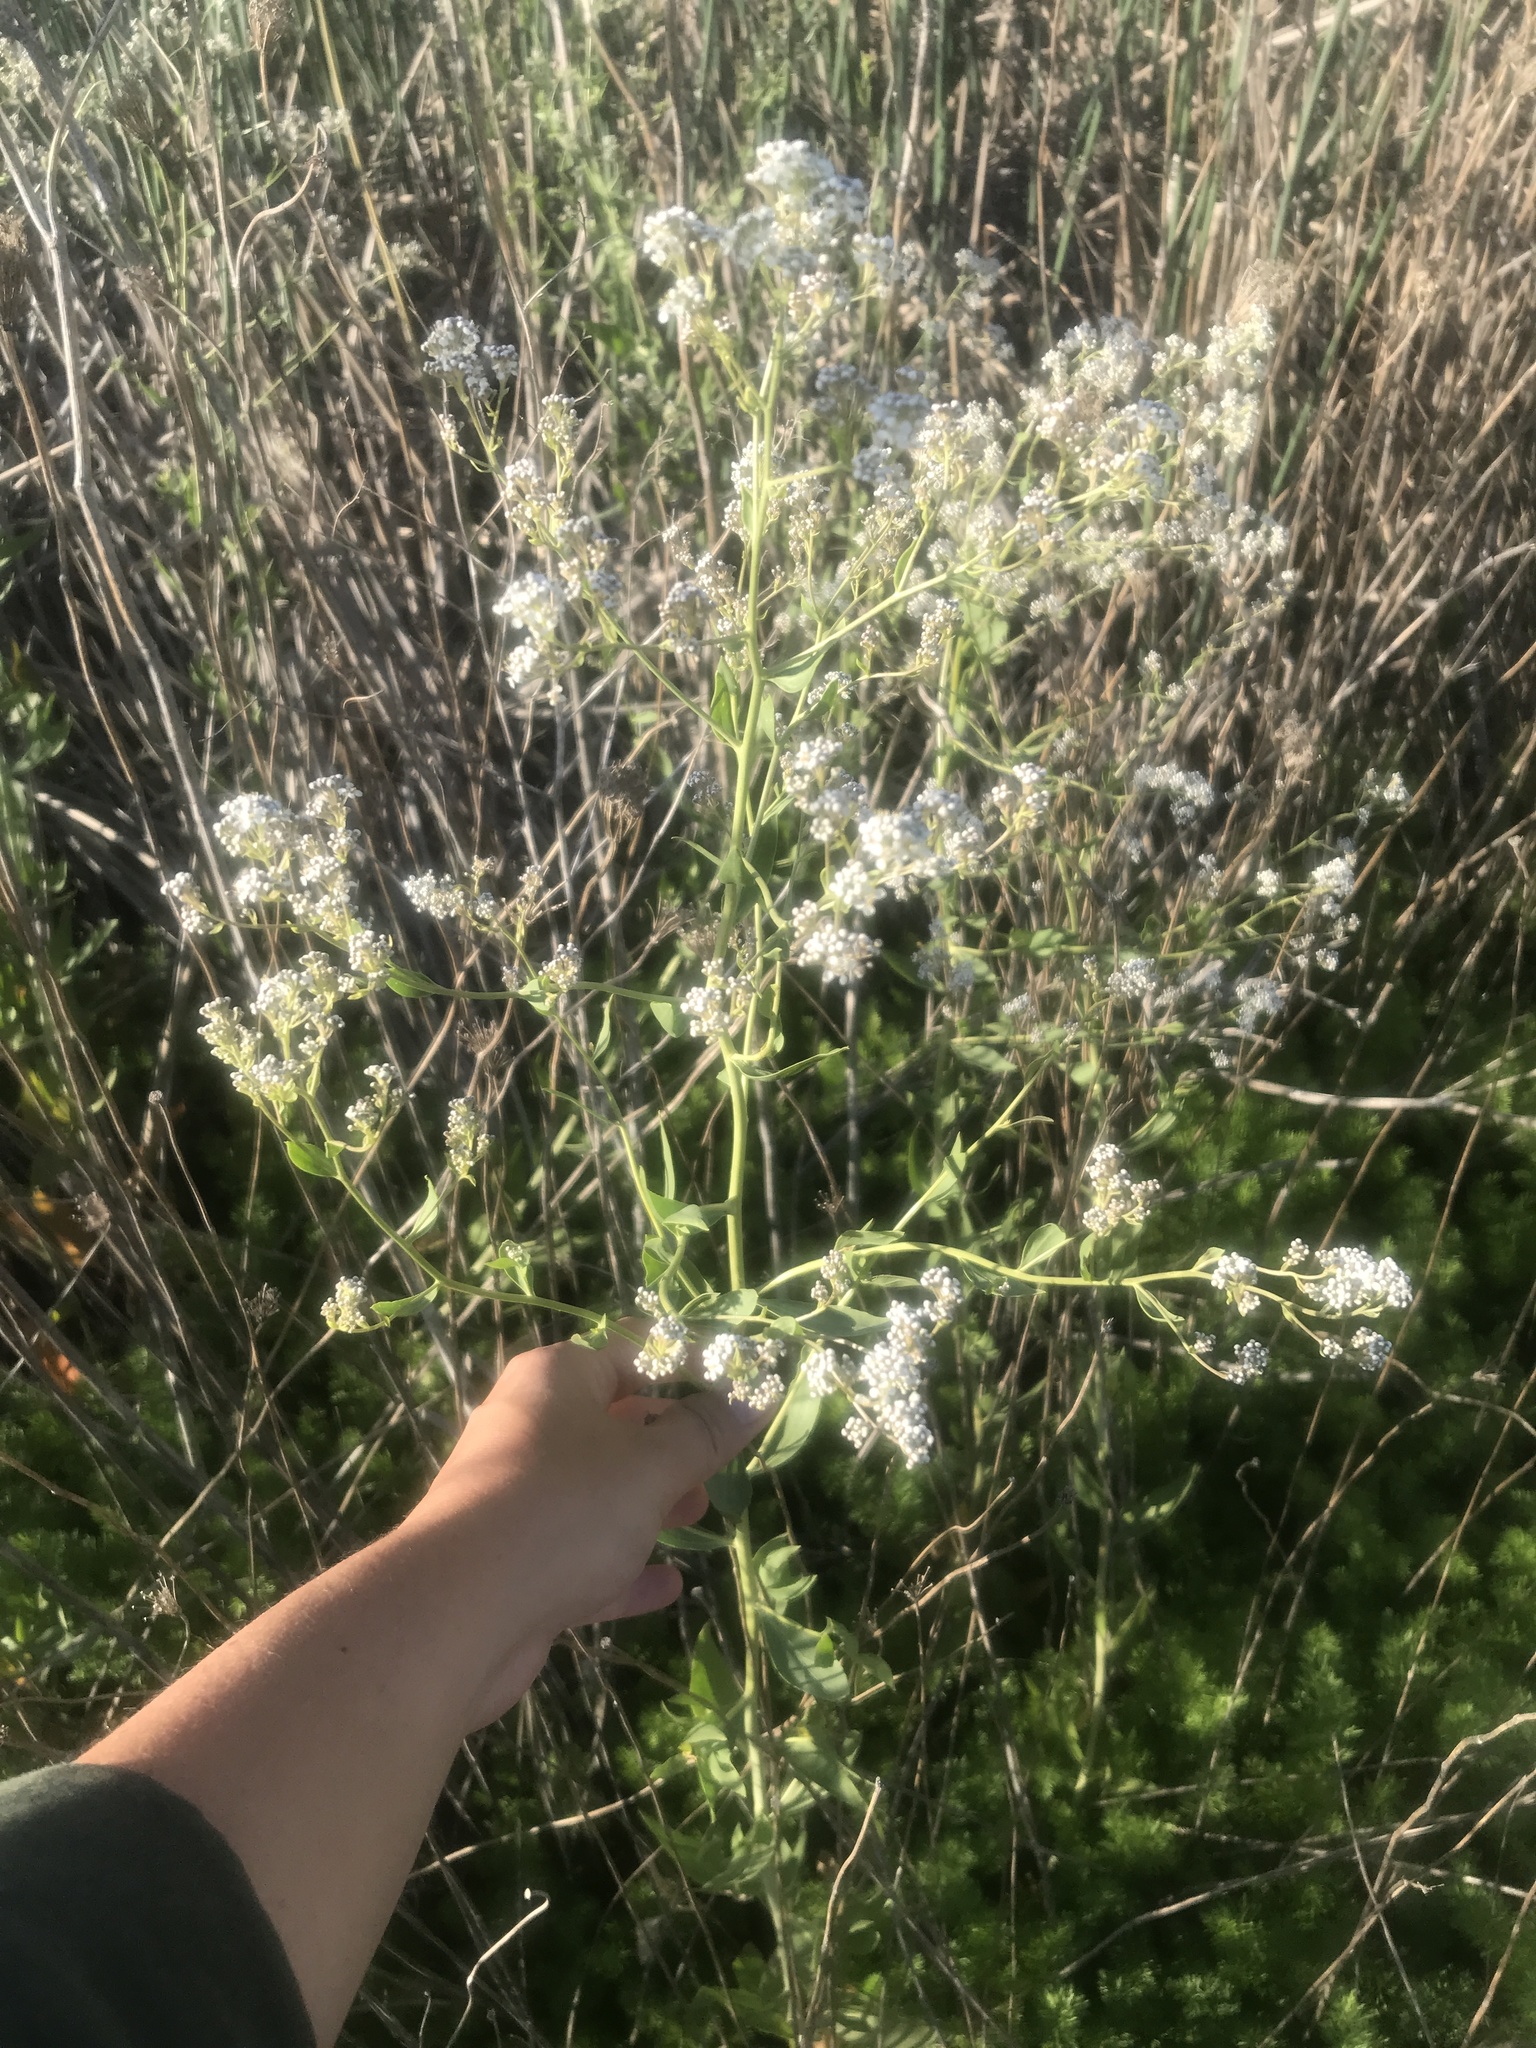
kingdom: Plantae
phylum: Tracheophyta
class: Magnoliopsida
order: Brassicales
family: Brassicaceae
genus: Lepidium
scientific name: Lepidium latifolium
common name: Dittander
